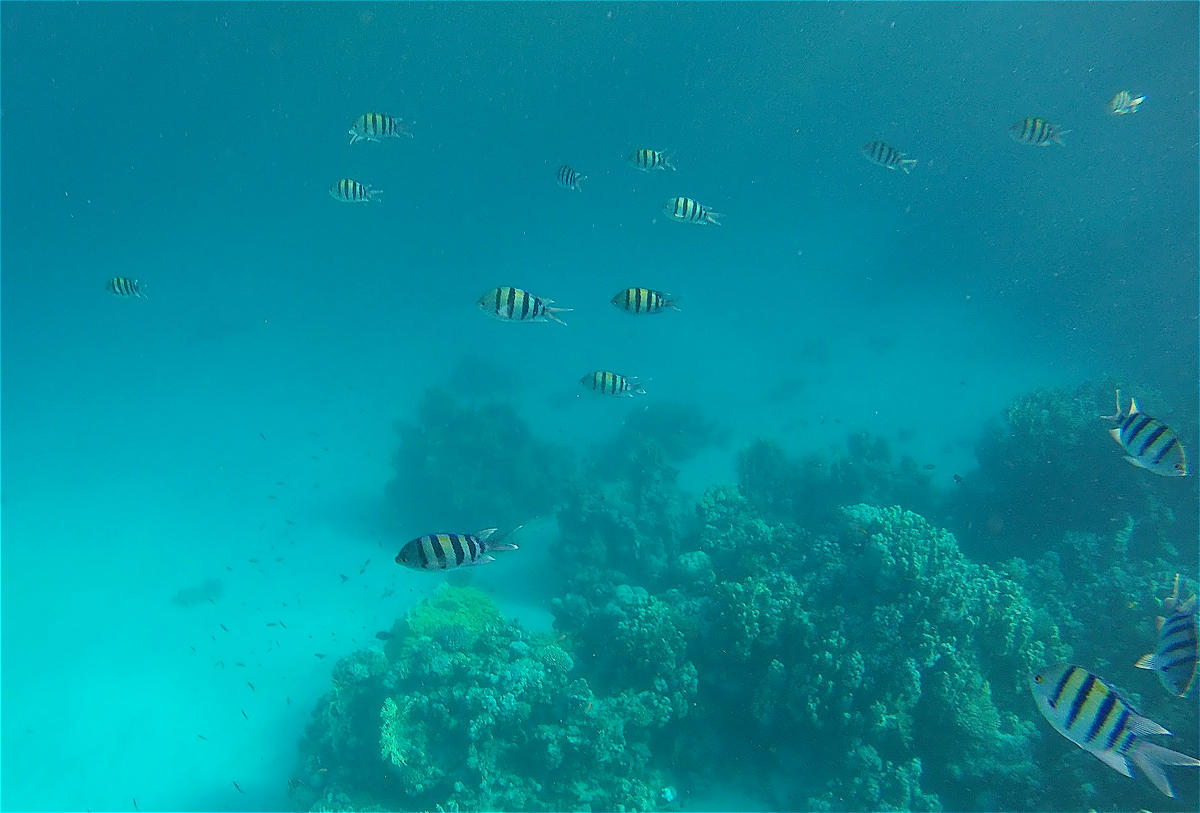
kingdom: Animalia
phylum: Chordata
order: Perciformes
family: Pomacentridae
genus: Abudefduf
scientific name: Abudefduf vaigiensis
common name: Indo-pacific sergeant
